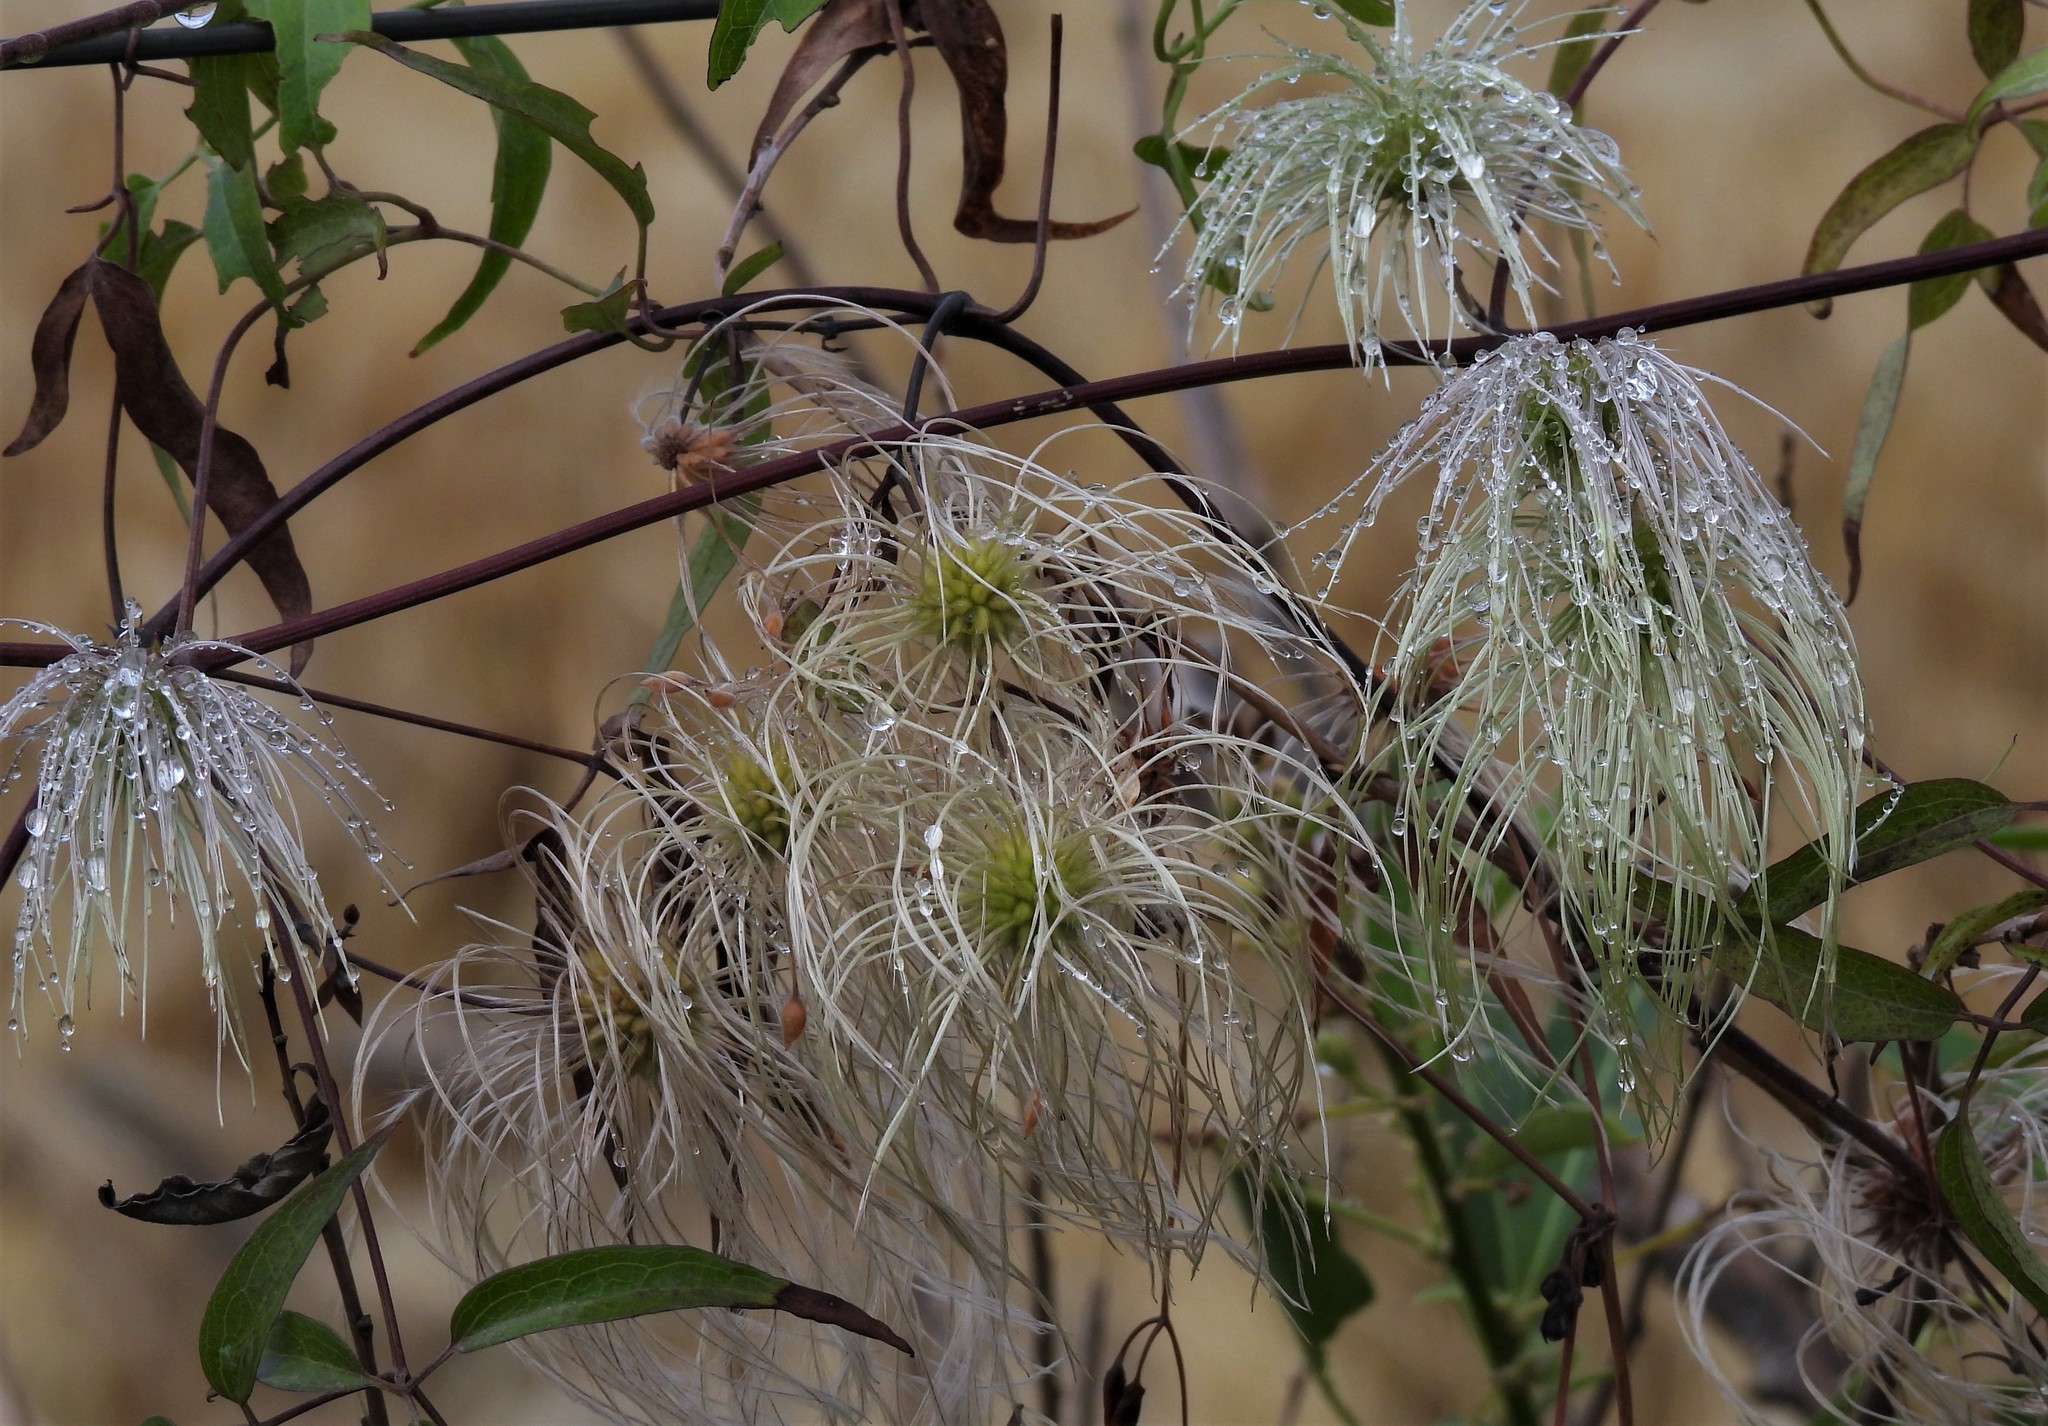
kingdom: Plantae
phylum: Tracheophyta
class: Magnoliopsida
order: Ranunculales
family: Ranunculaceae
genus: Clematis
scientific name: Clematis montevidensis
